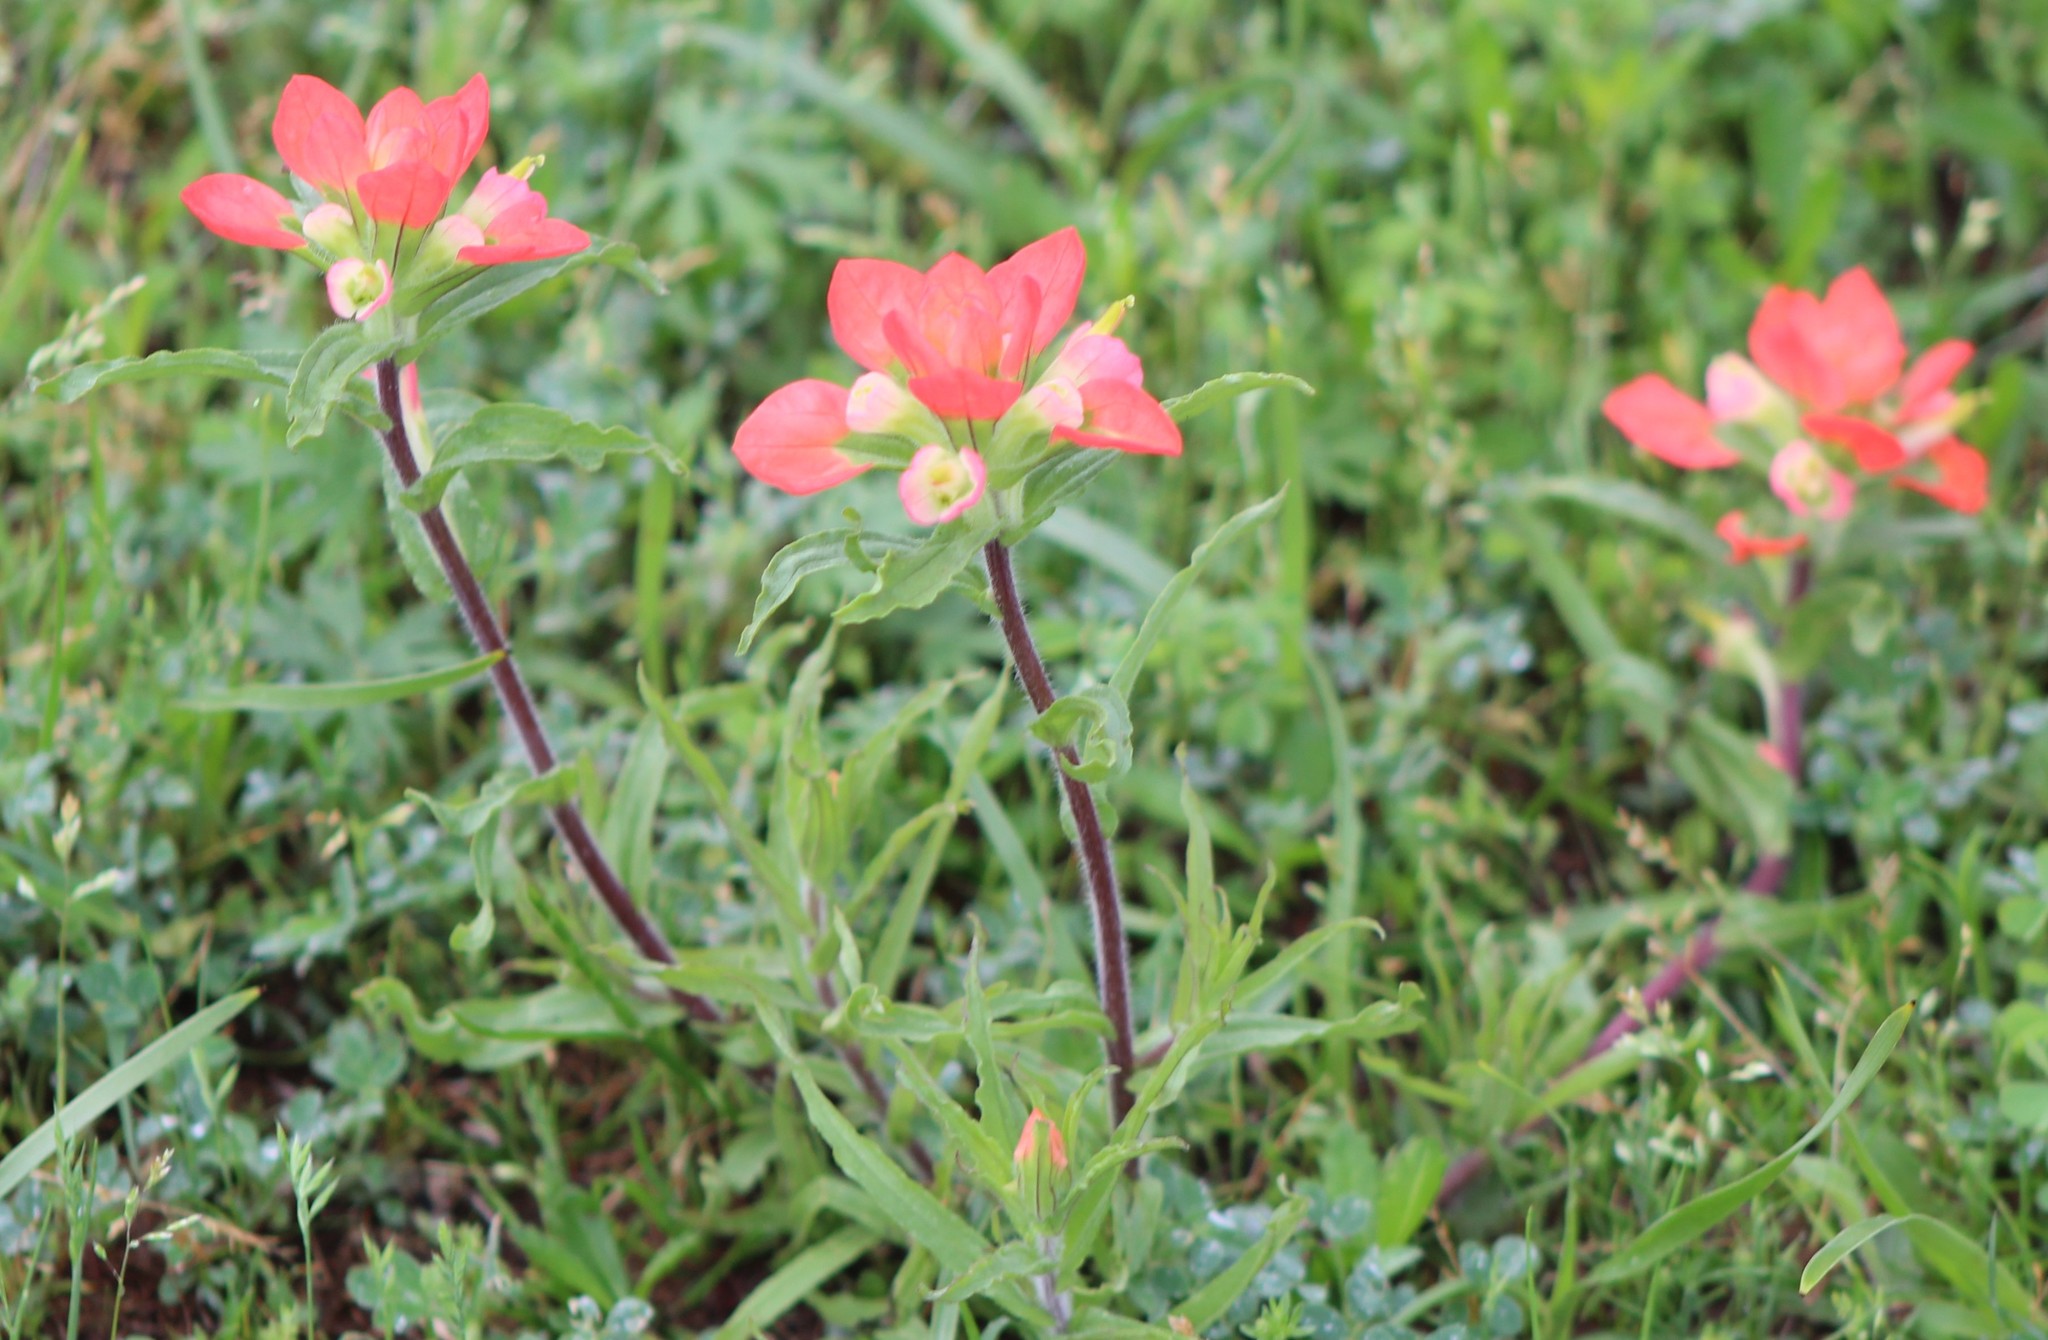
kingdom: Plantae
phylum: Tracheophyta
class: Magnoliopsida
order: Lamiales
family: Orobanchaceae
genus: Castilleja
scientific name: Castilleja indivisa
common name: Texas paintbrush
